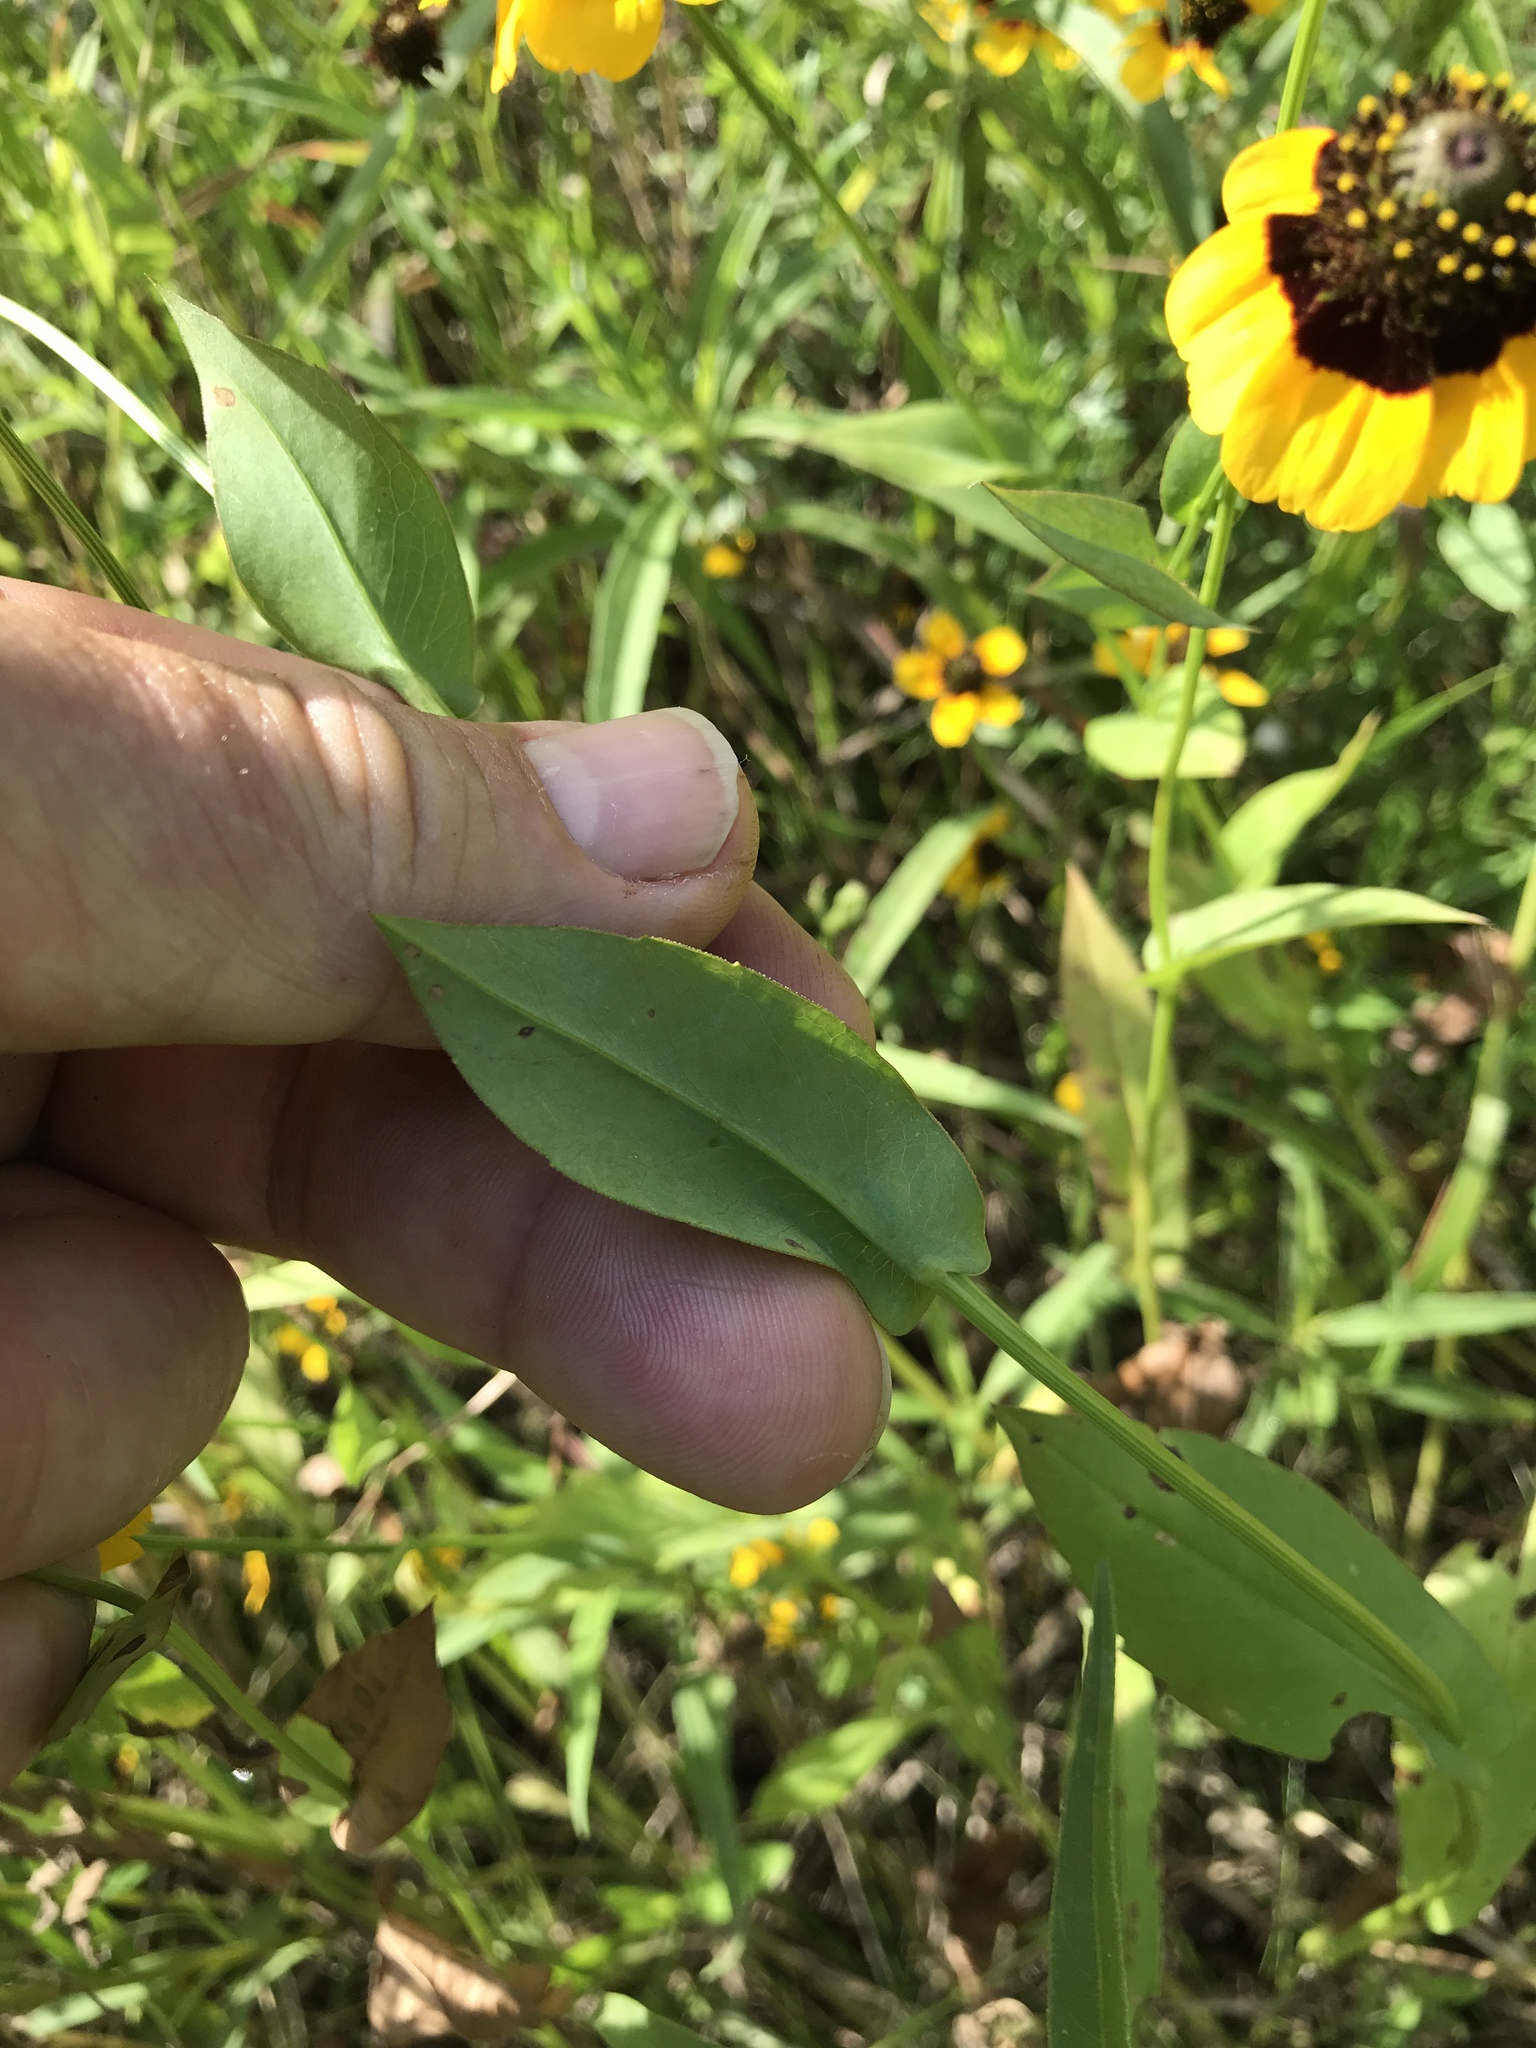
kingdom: Plantae
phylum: Tracheophyta
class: Magnoliopsida
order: Asterales
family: Asteraceae
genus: Rudbeckia
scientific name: Rudbeckia amplexicaulis
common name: Clasping-leaf coneflower
